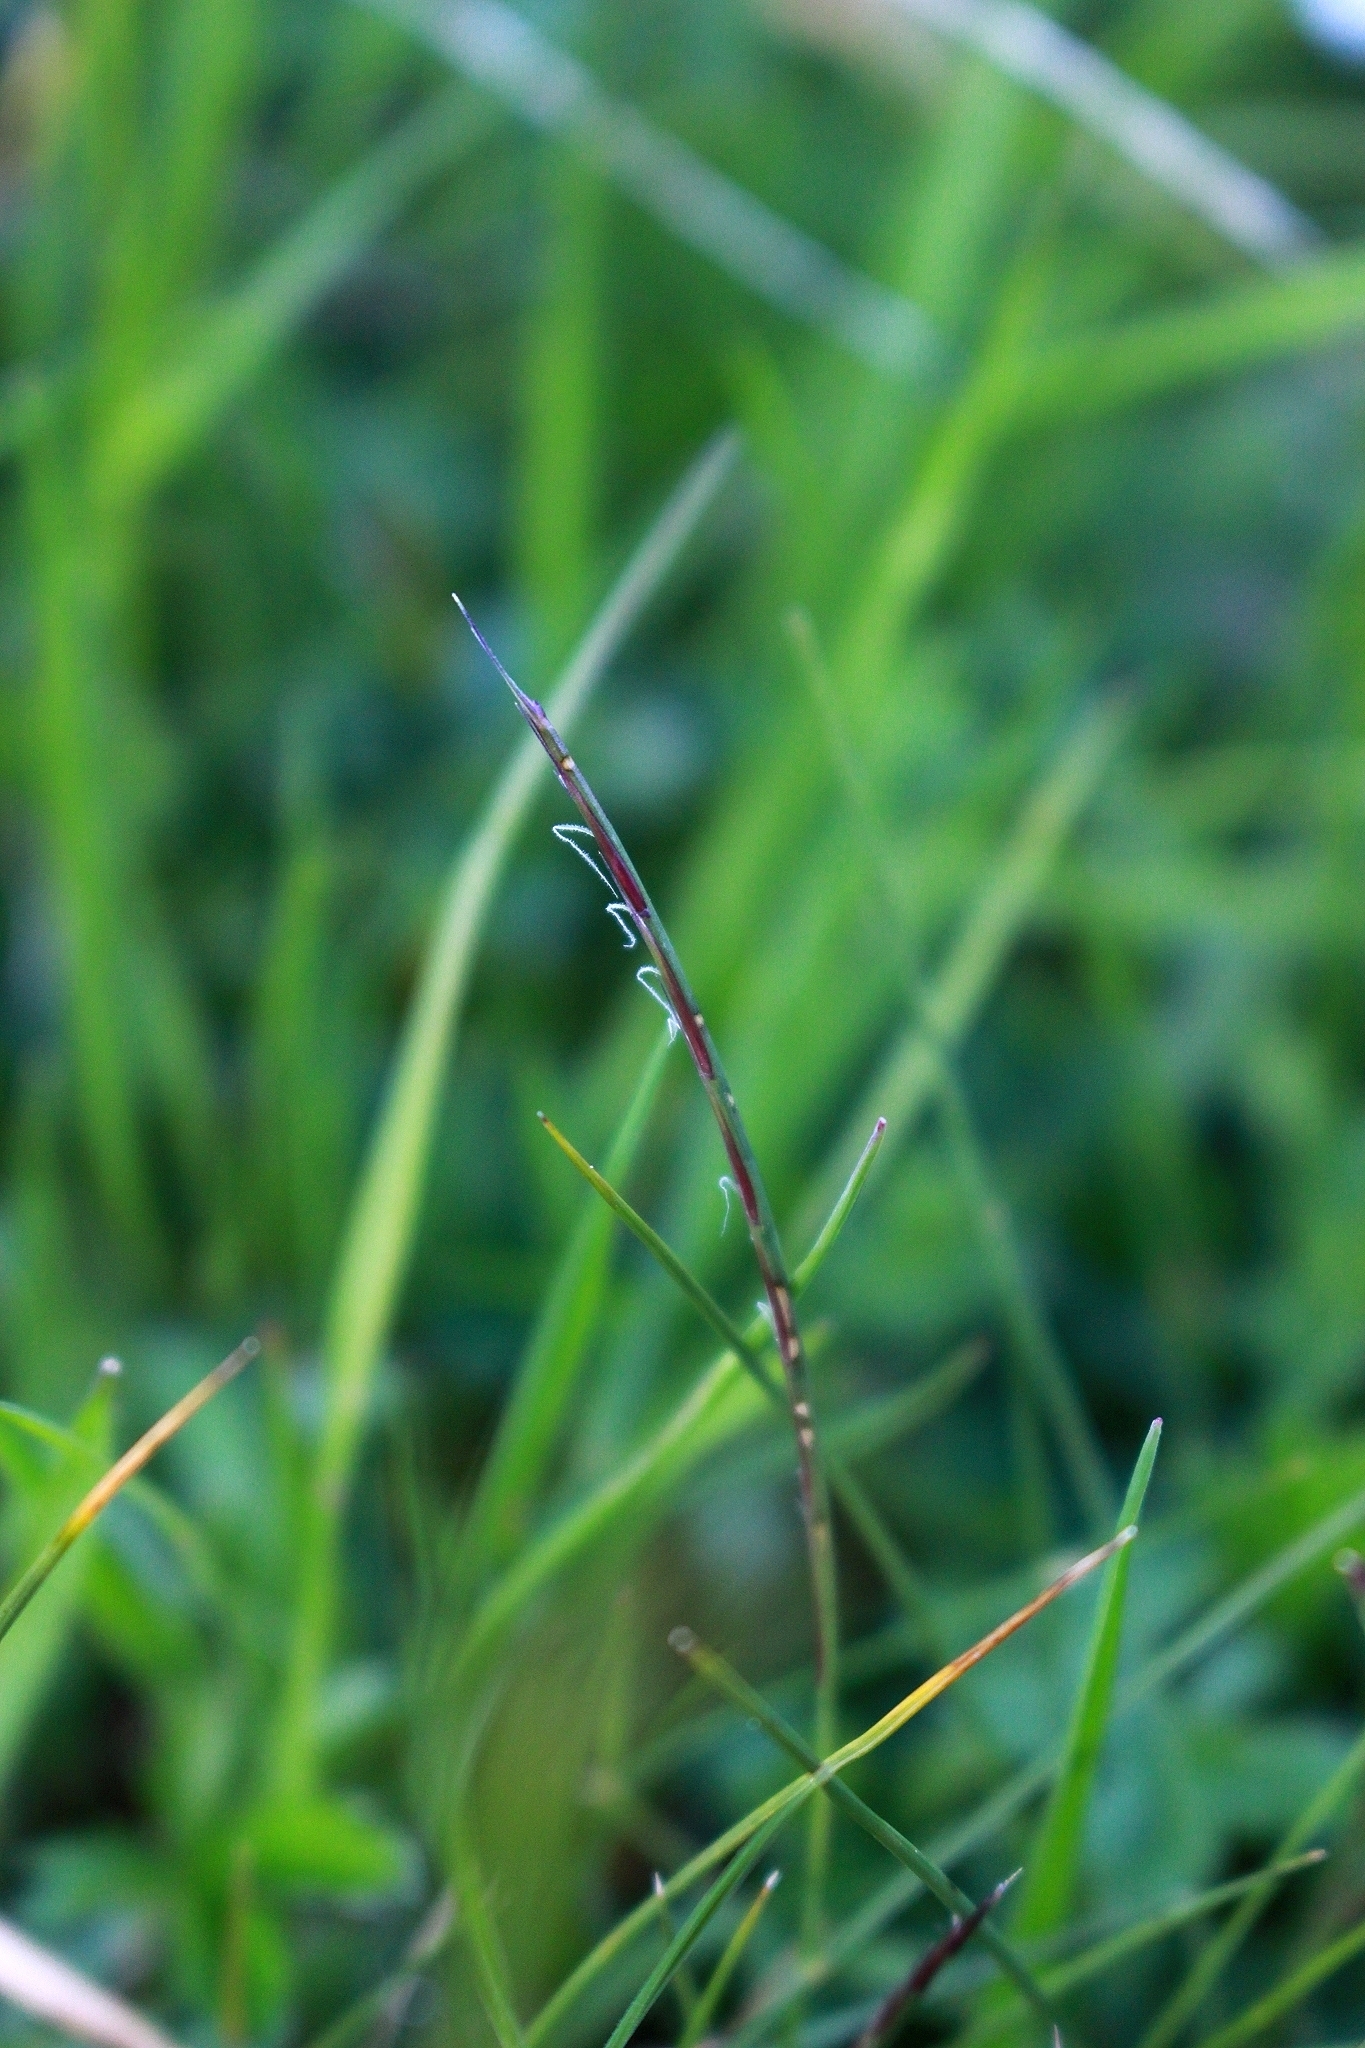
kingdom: Plantae
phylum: Tracheophyta
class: Liliopsida
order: Poales
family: Poaceae
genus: Nardus
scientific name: Nardus stricta
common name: Mat-grass
